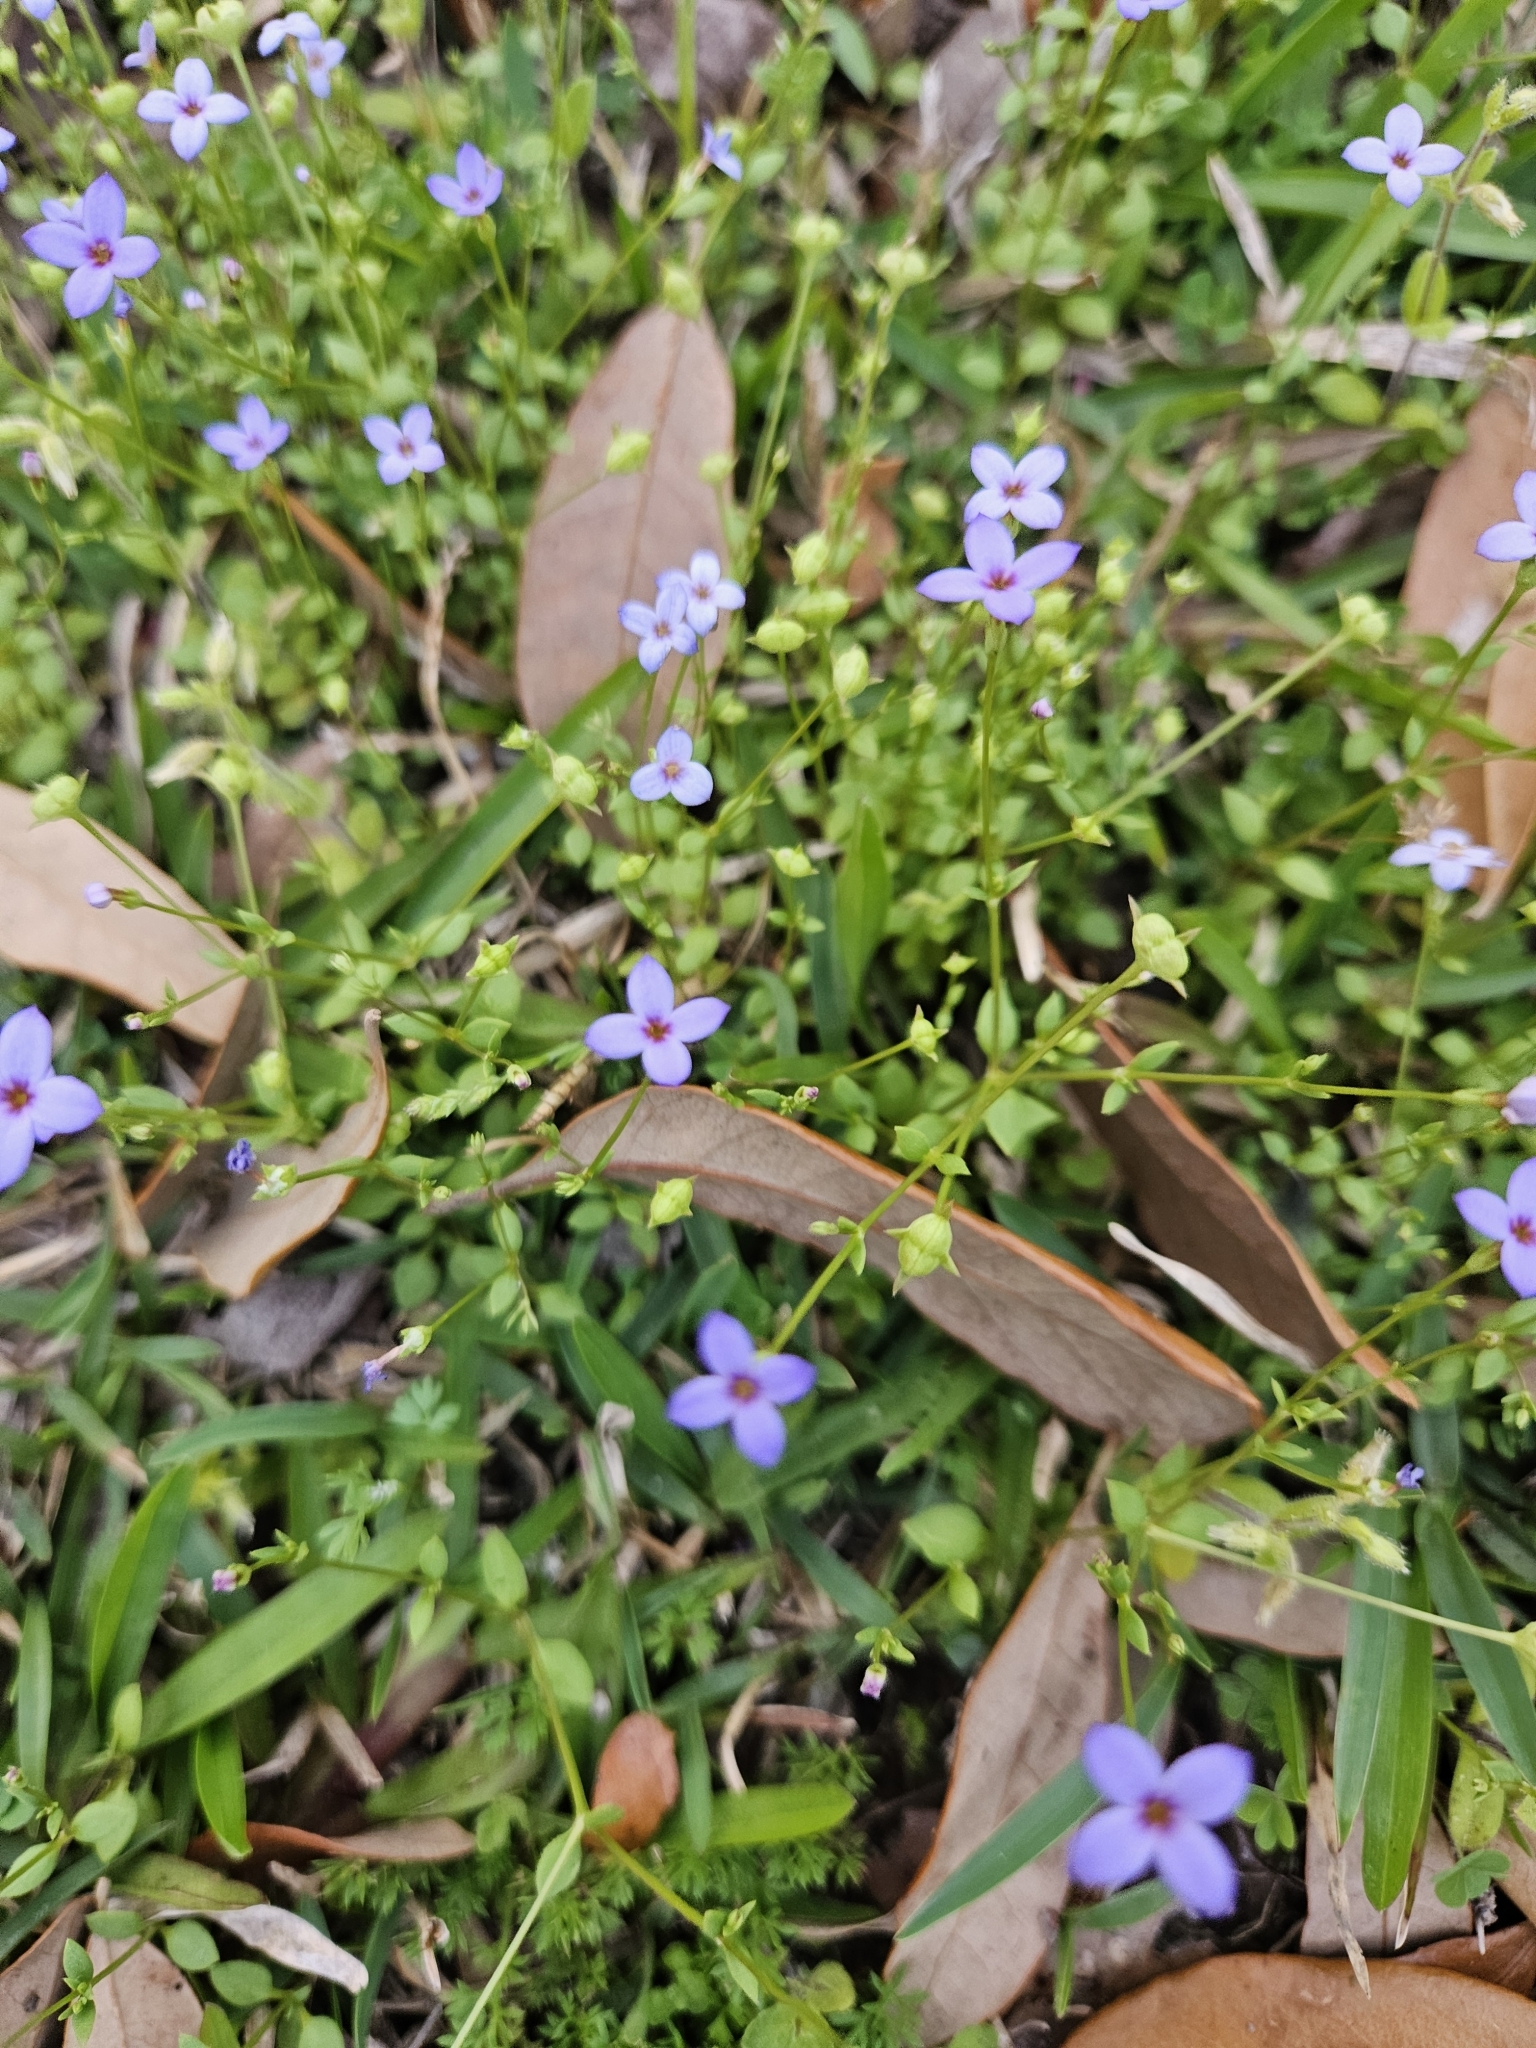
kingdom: Plantae
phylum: Tracheophyta
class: Magnoliopsida
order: Gentianales
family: Rubiaceae
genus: Houstonia
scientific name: Houstonia pusilla
